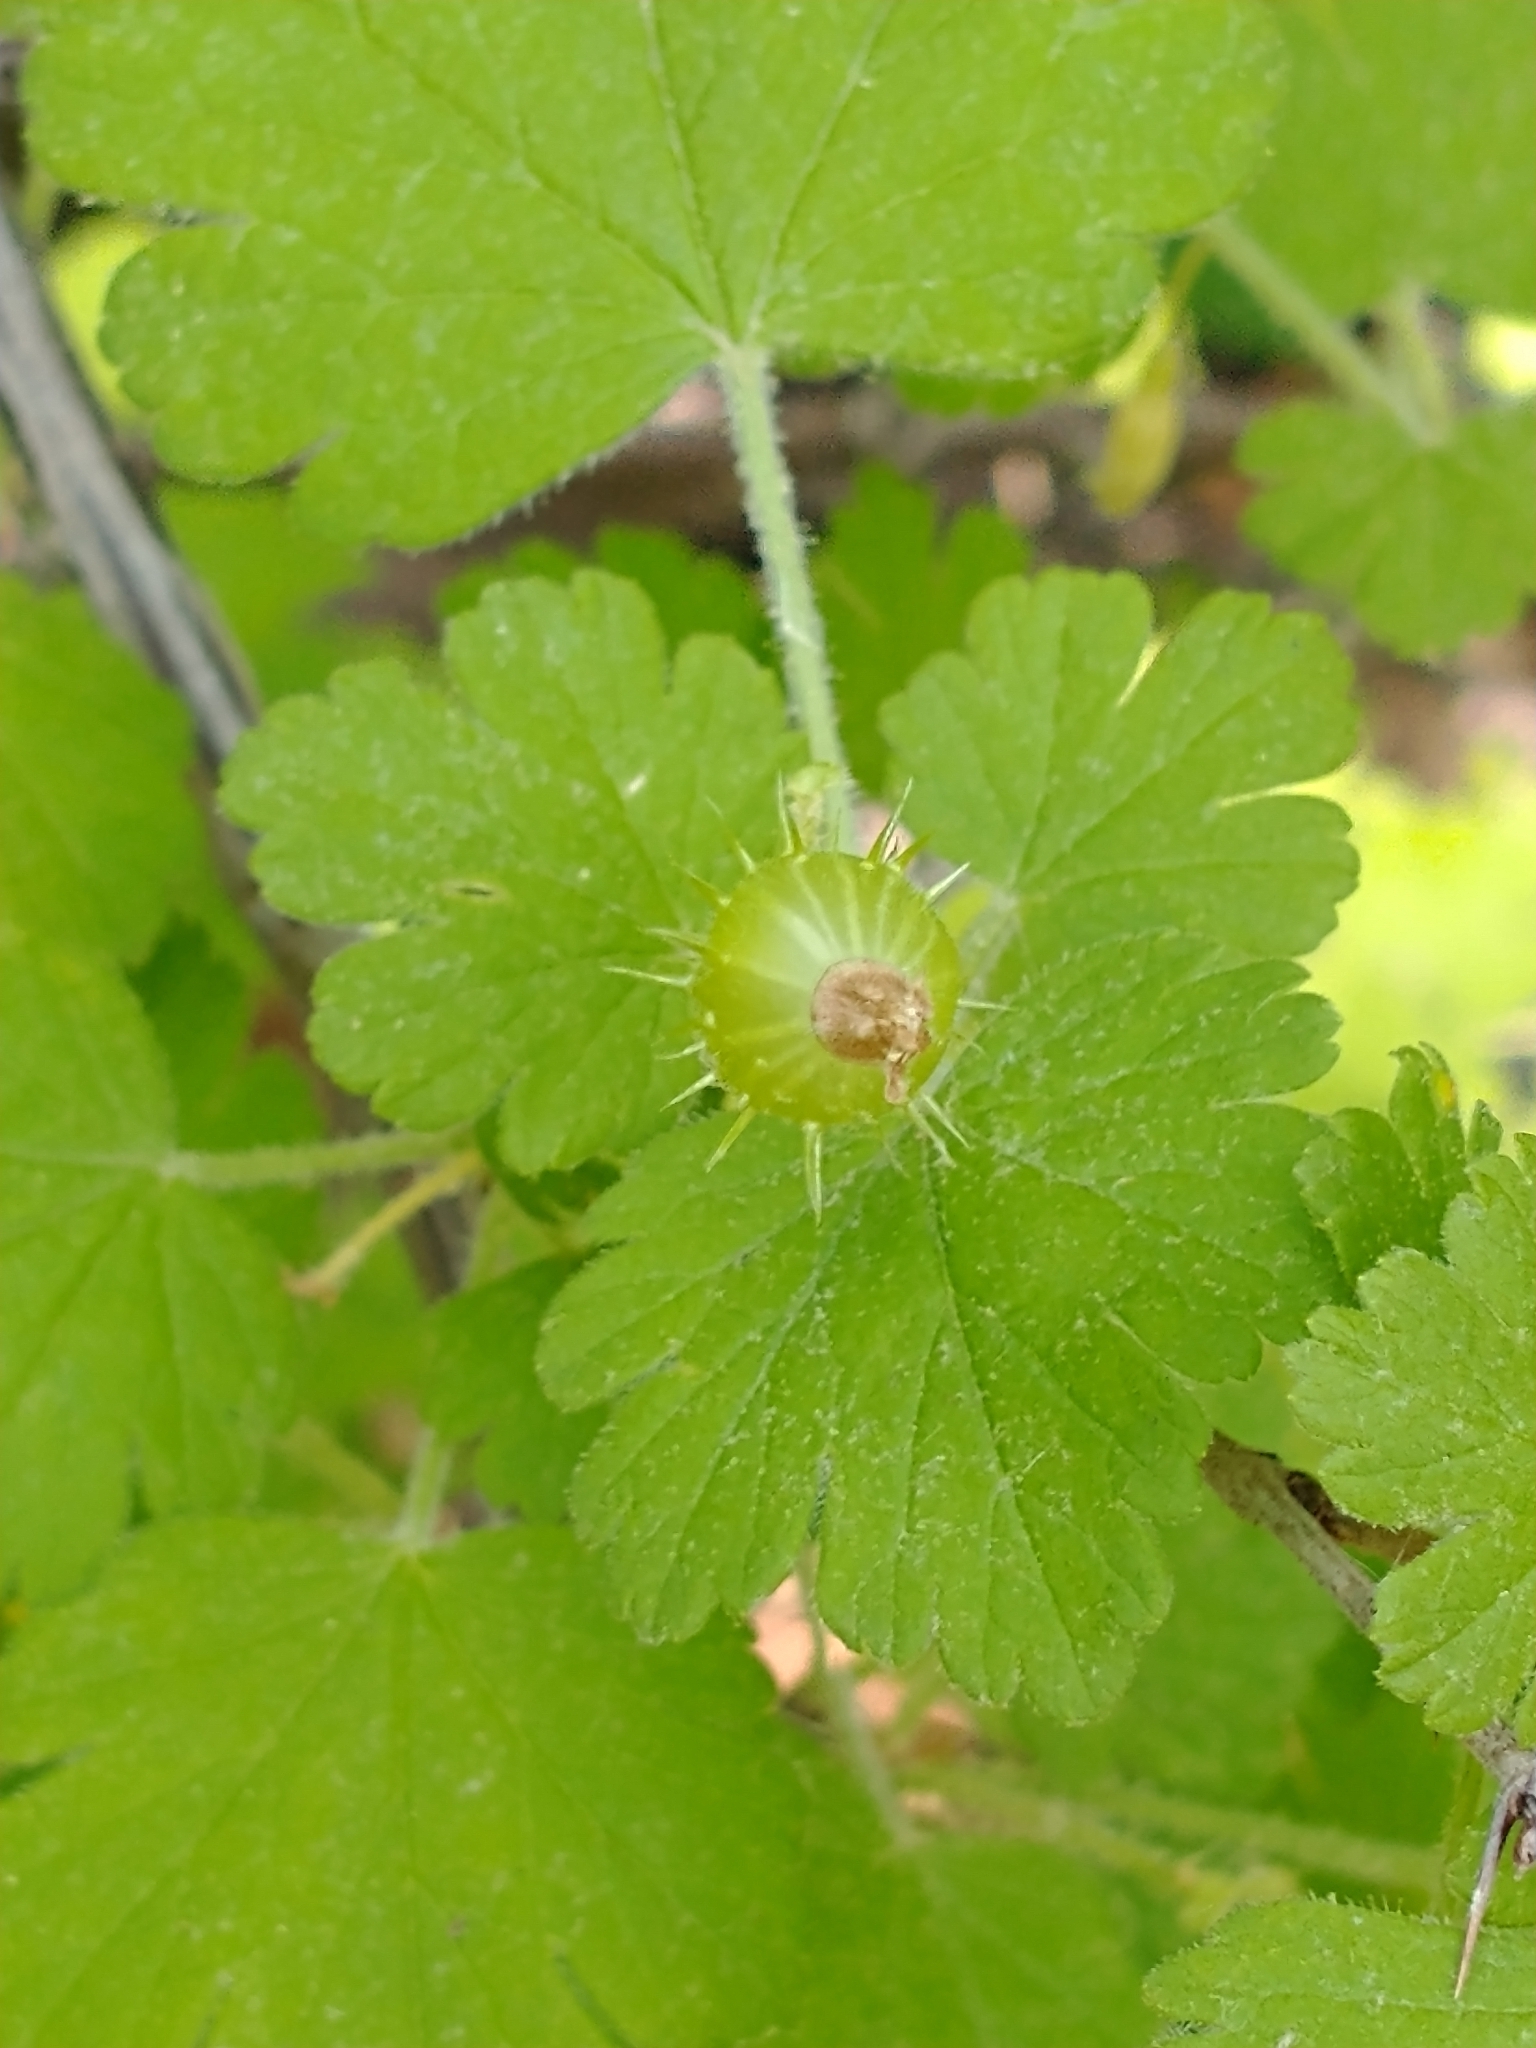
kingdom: Plantae
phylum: Tracheophyta
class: Magnoliopsida
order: Saxifragales
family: Grossulariaceae
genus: Ribes
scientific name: Ribes cynosbati
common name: American gooseberry
